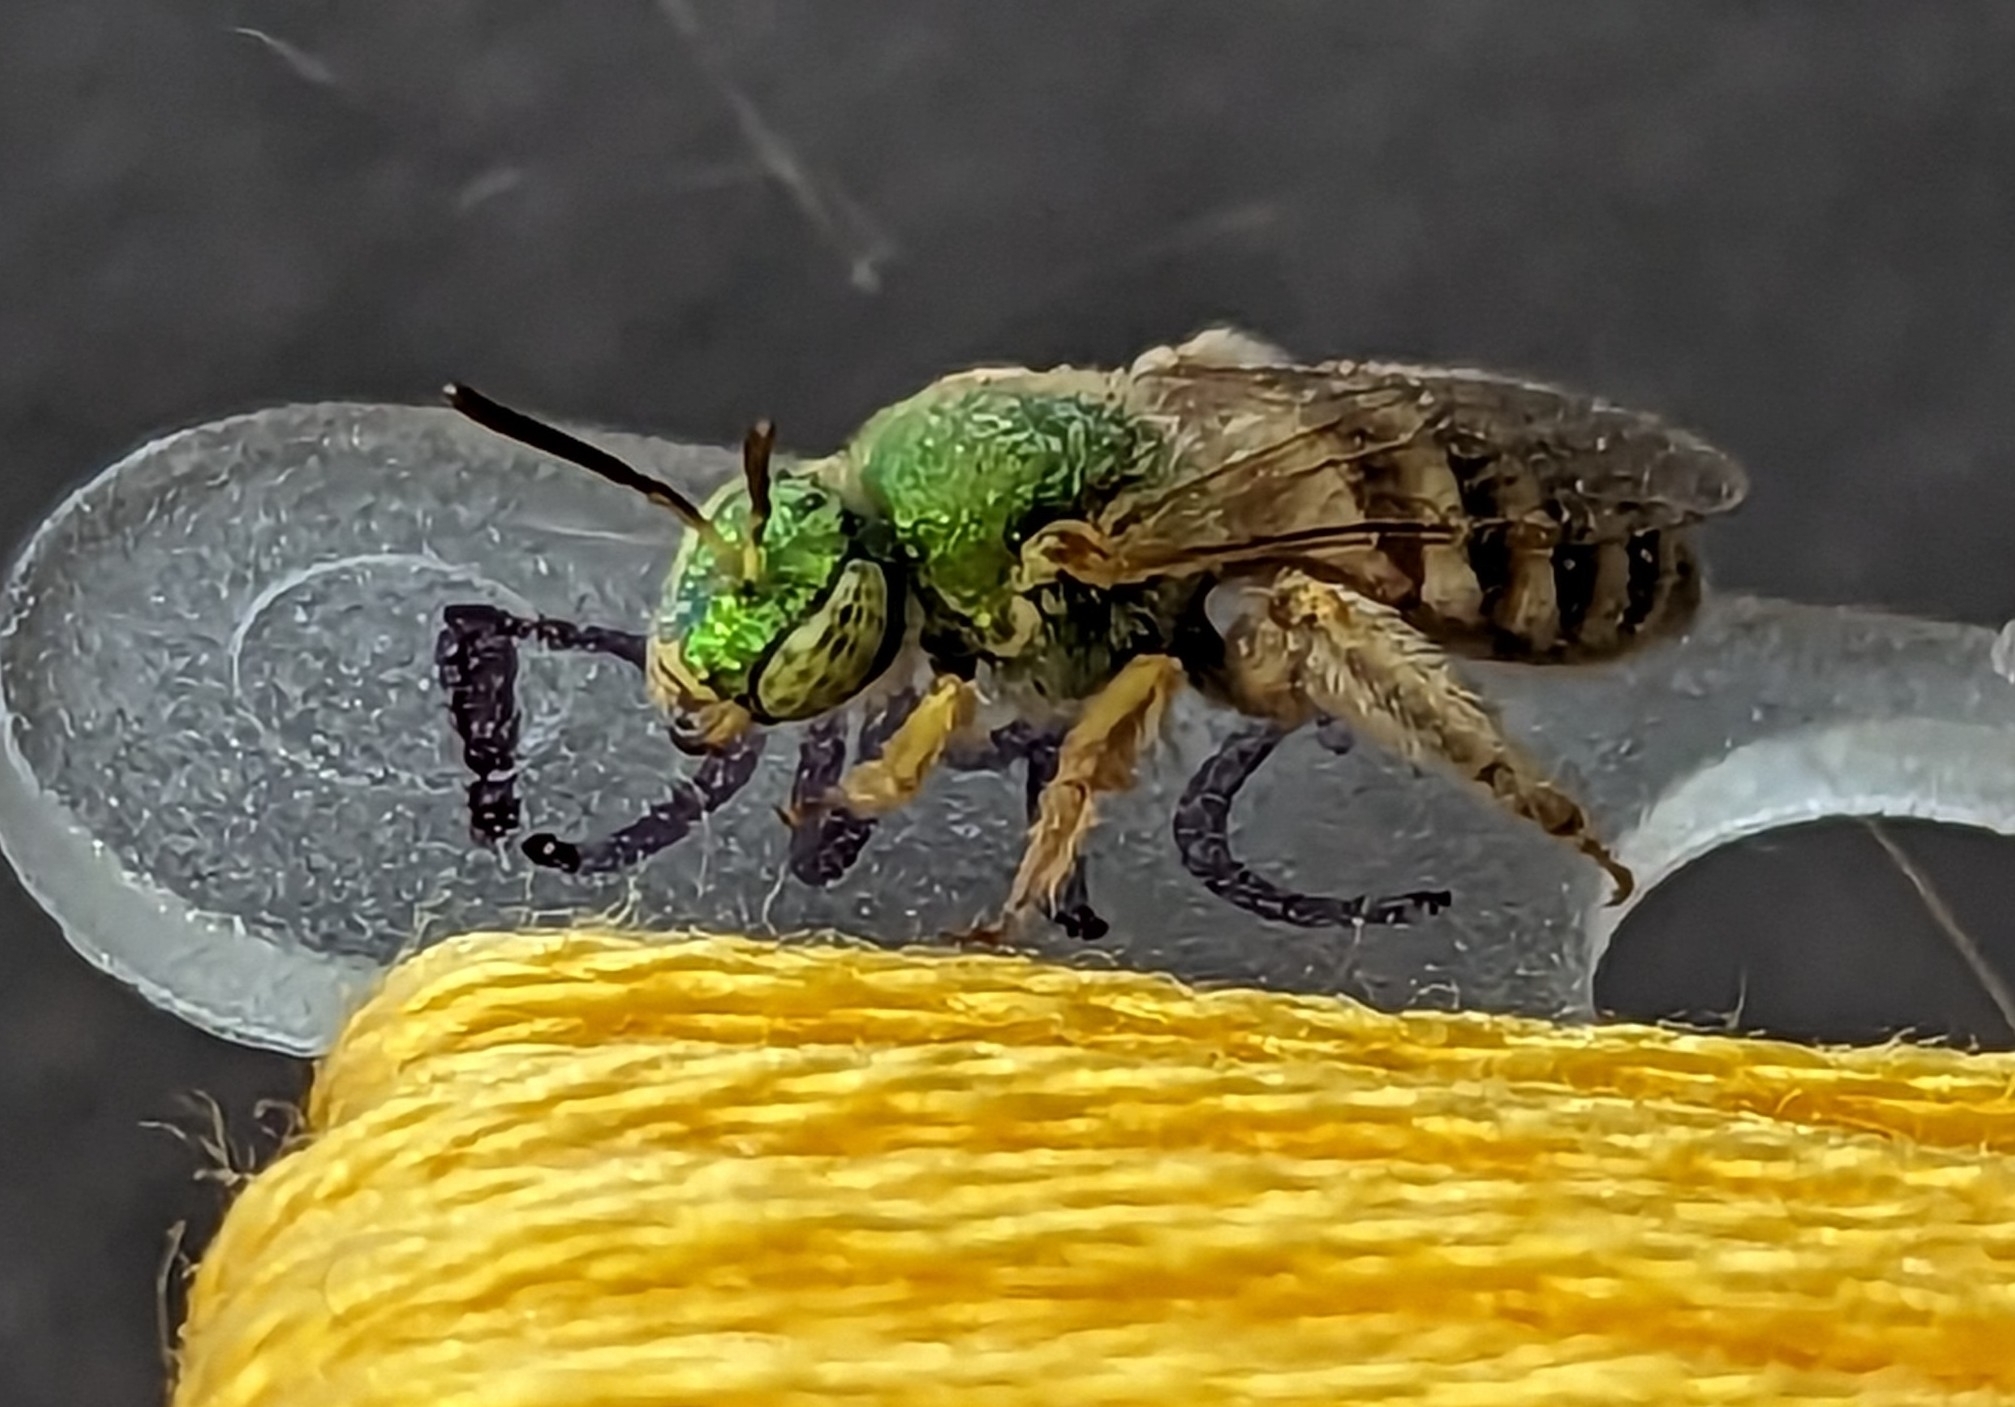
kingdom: Animalia
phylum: Arthropoda
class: Insecta
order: Hymenoptera
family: Halictidae
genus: Agapostemon
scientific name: Agapostemon melliventris
